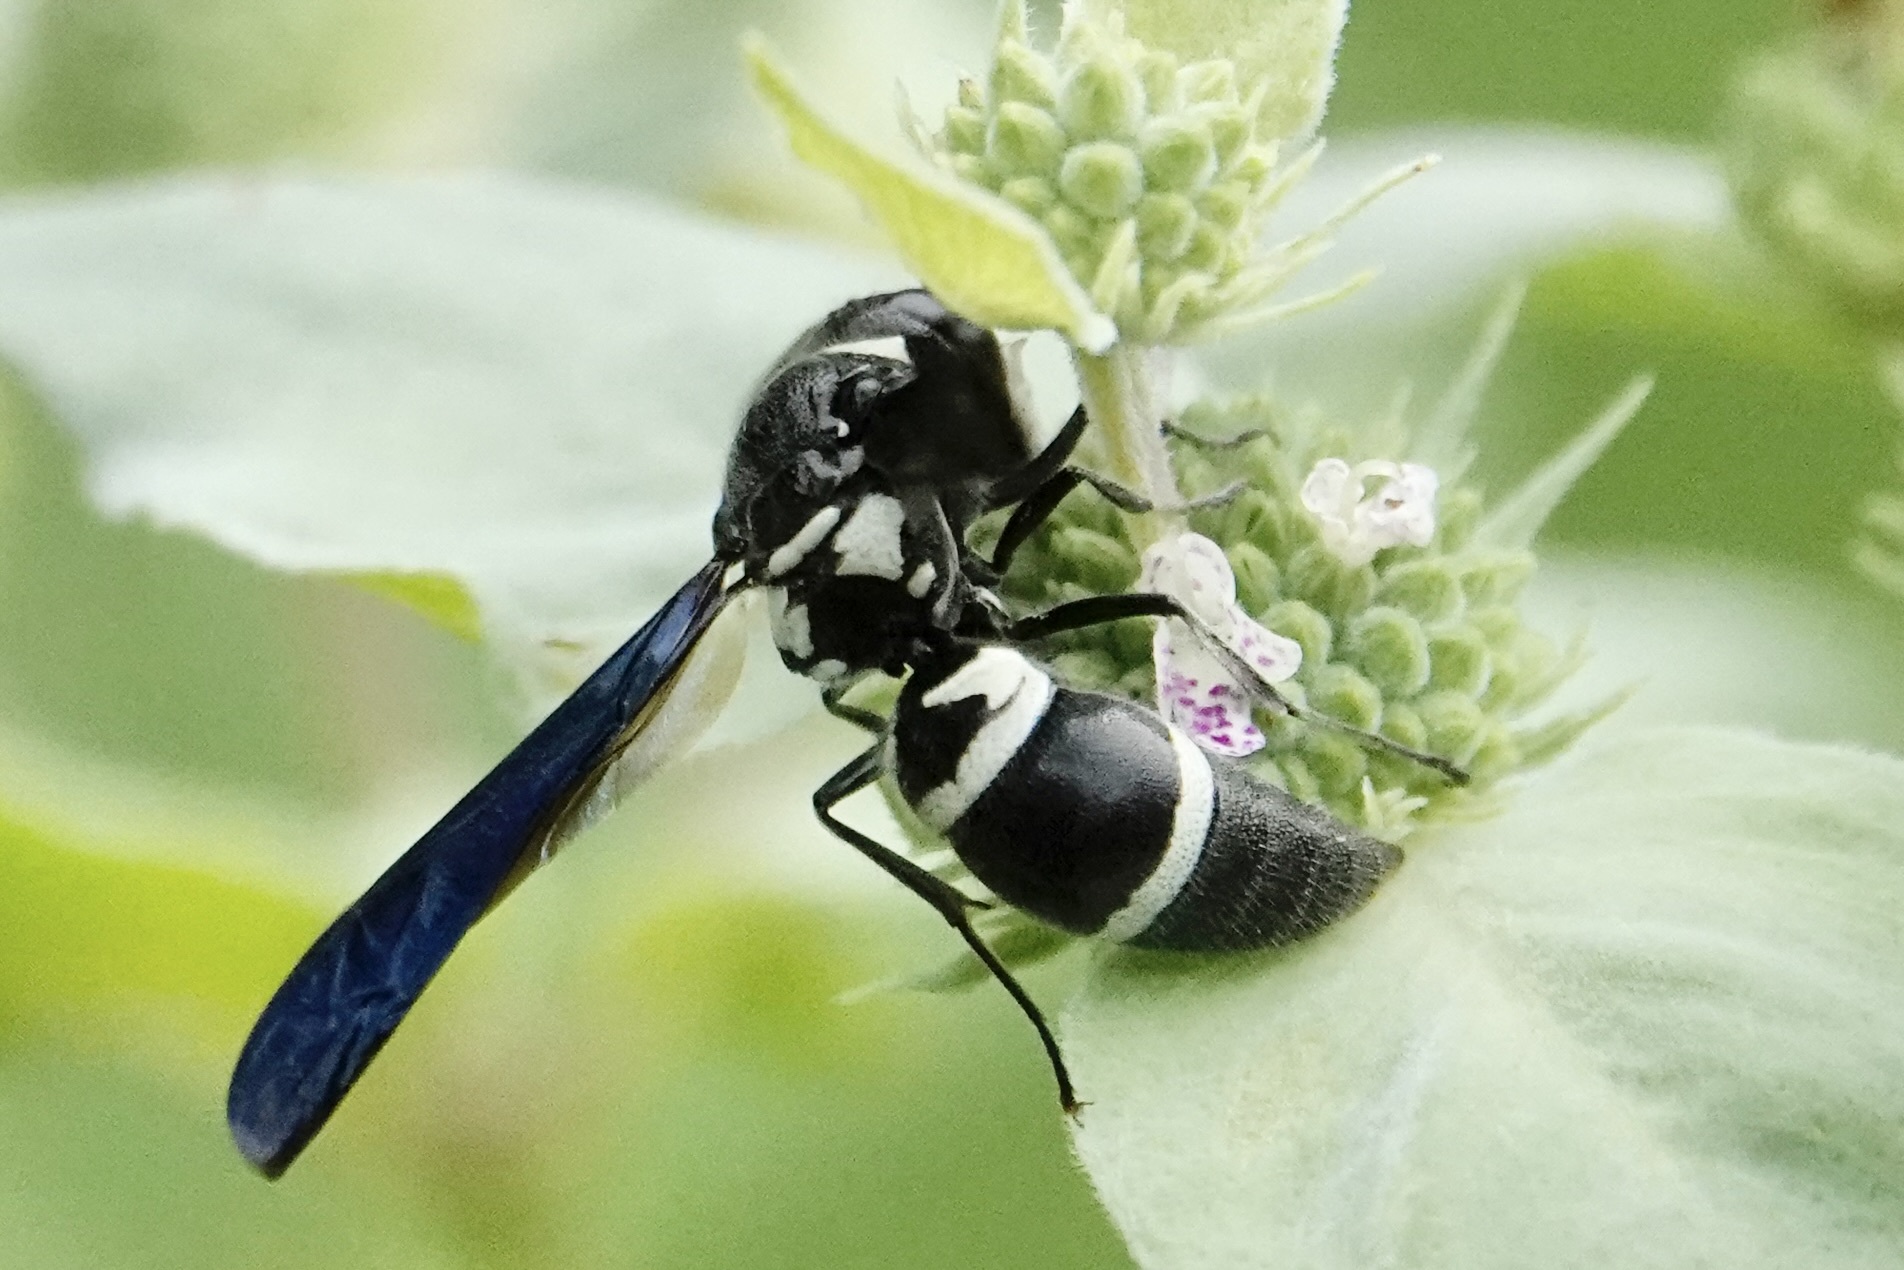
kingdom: Animalia
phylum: Arthropoda
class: Insecta
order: Hymenoptera
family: Eumenidae
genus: Pseudodynerus
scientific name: Pseudodynerus quadrisectus
